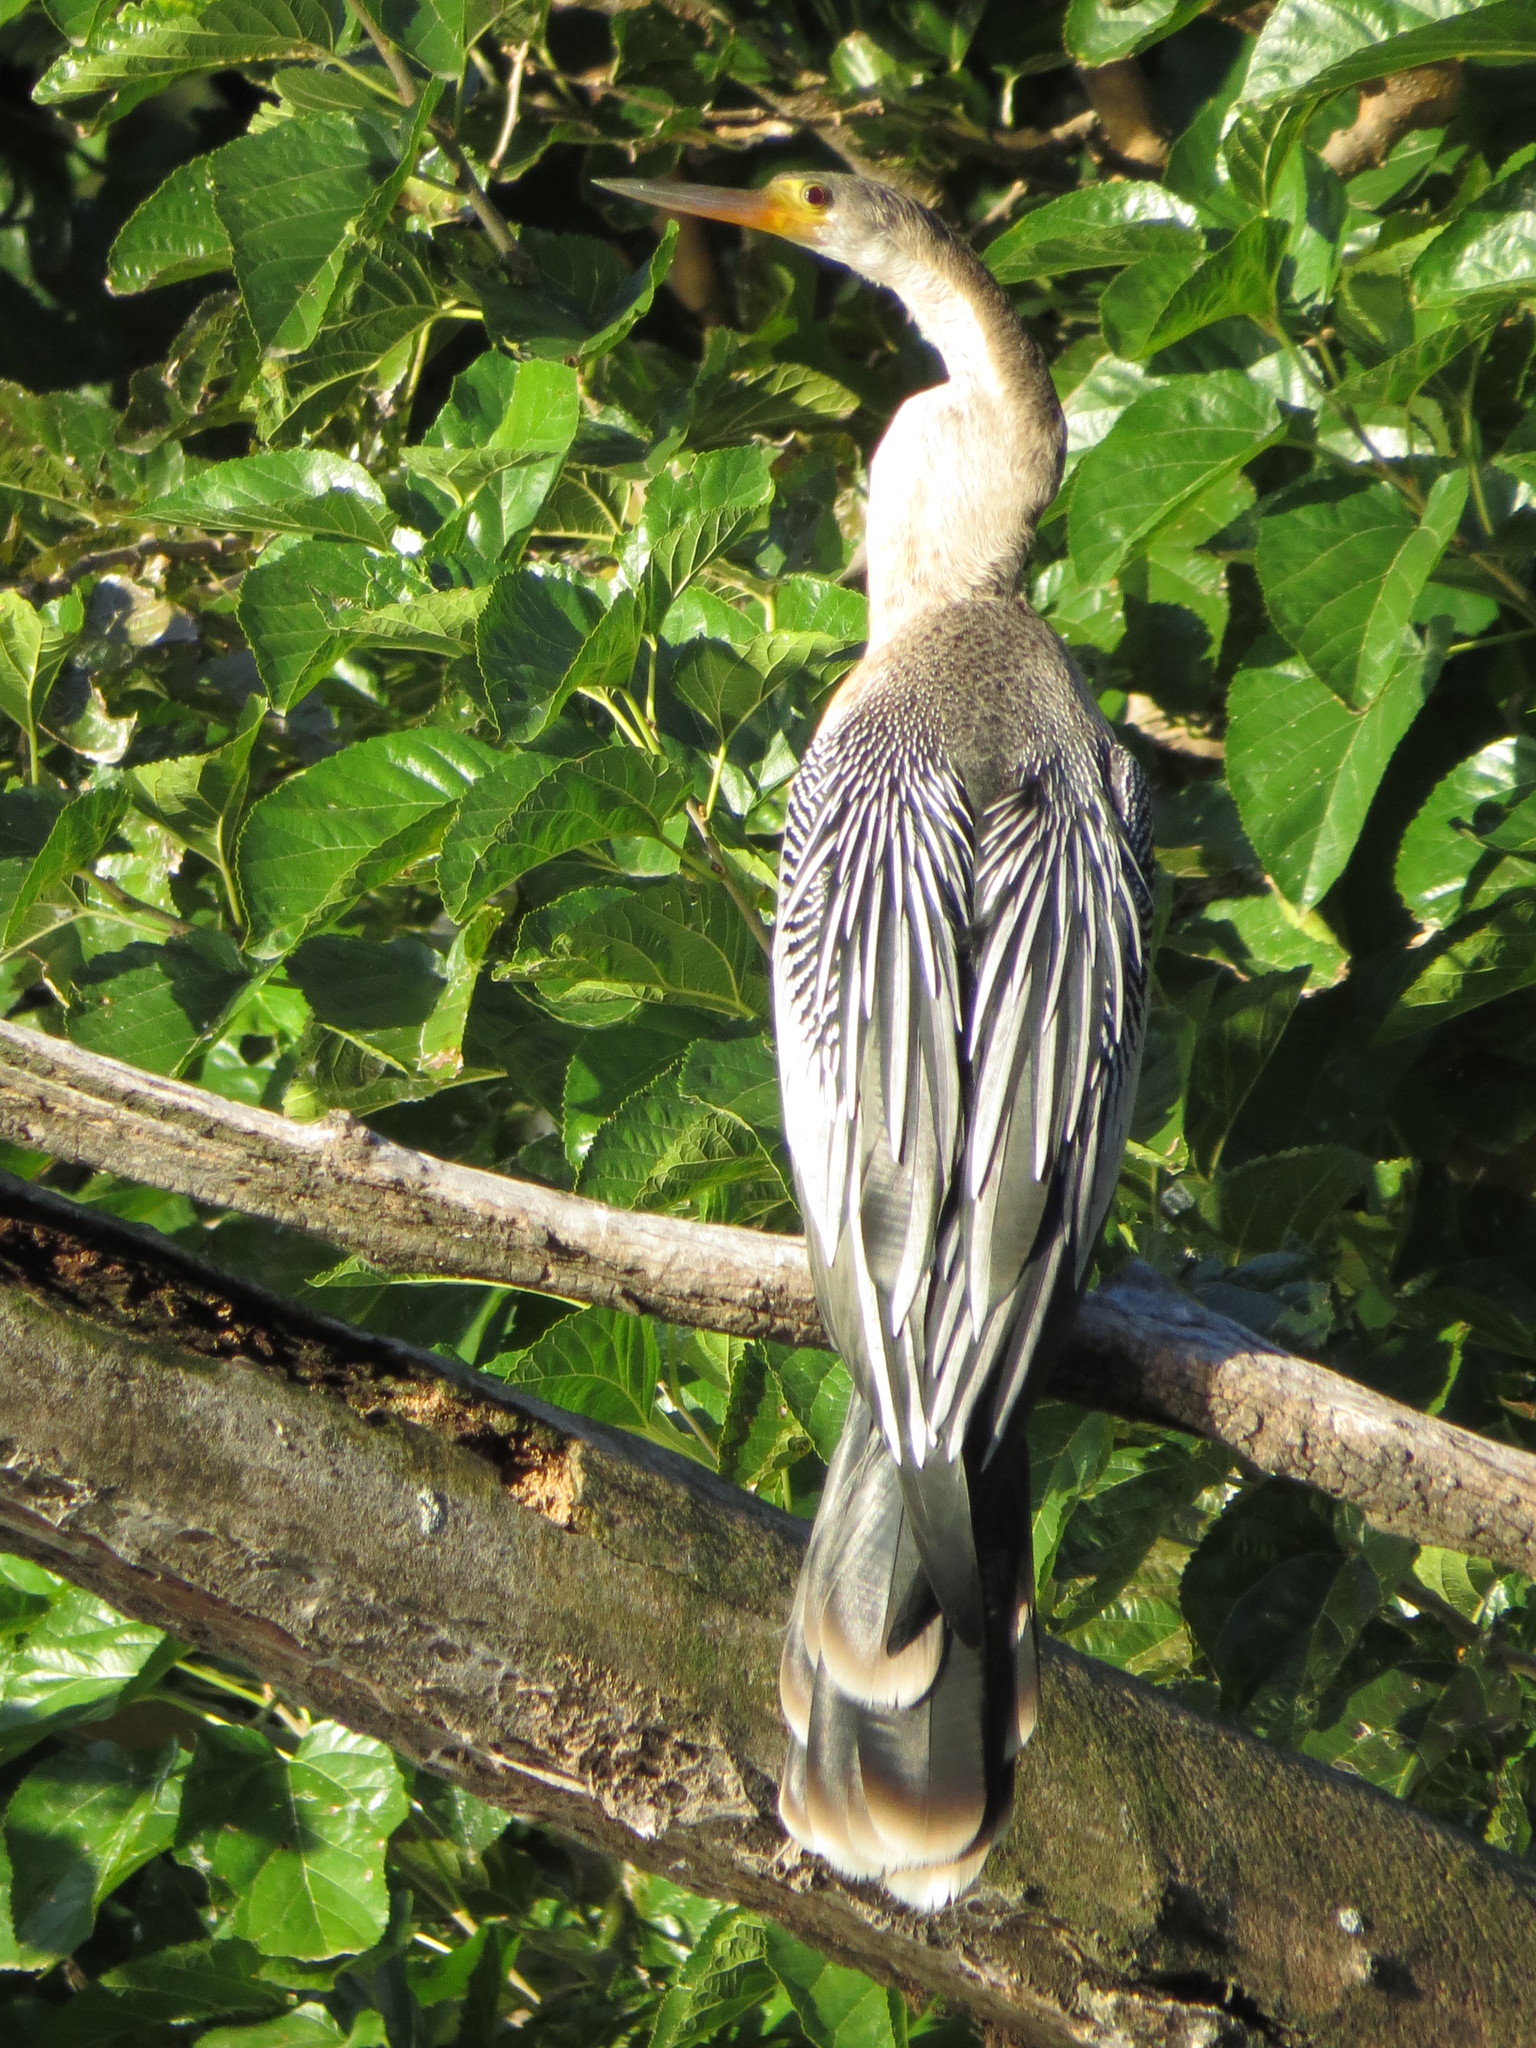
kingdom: Animalia
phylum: Chordata
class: Aves
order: Suliformes
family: Anhingidae
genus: Anhinga
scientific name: Anhinga anhinga
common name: Anhinga
